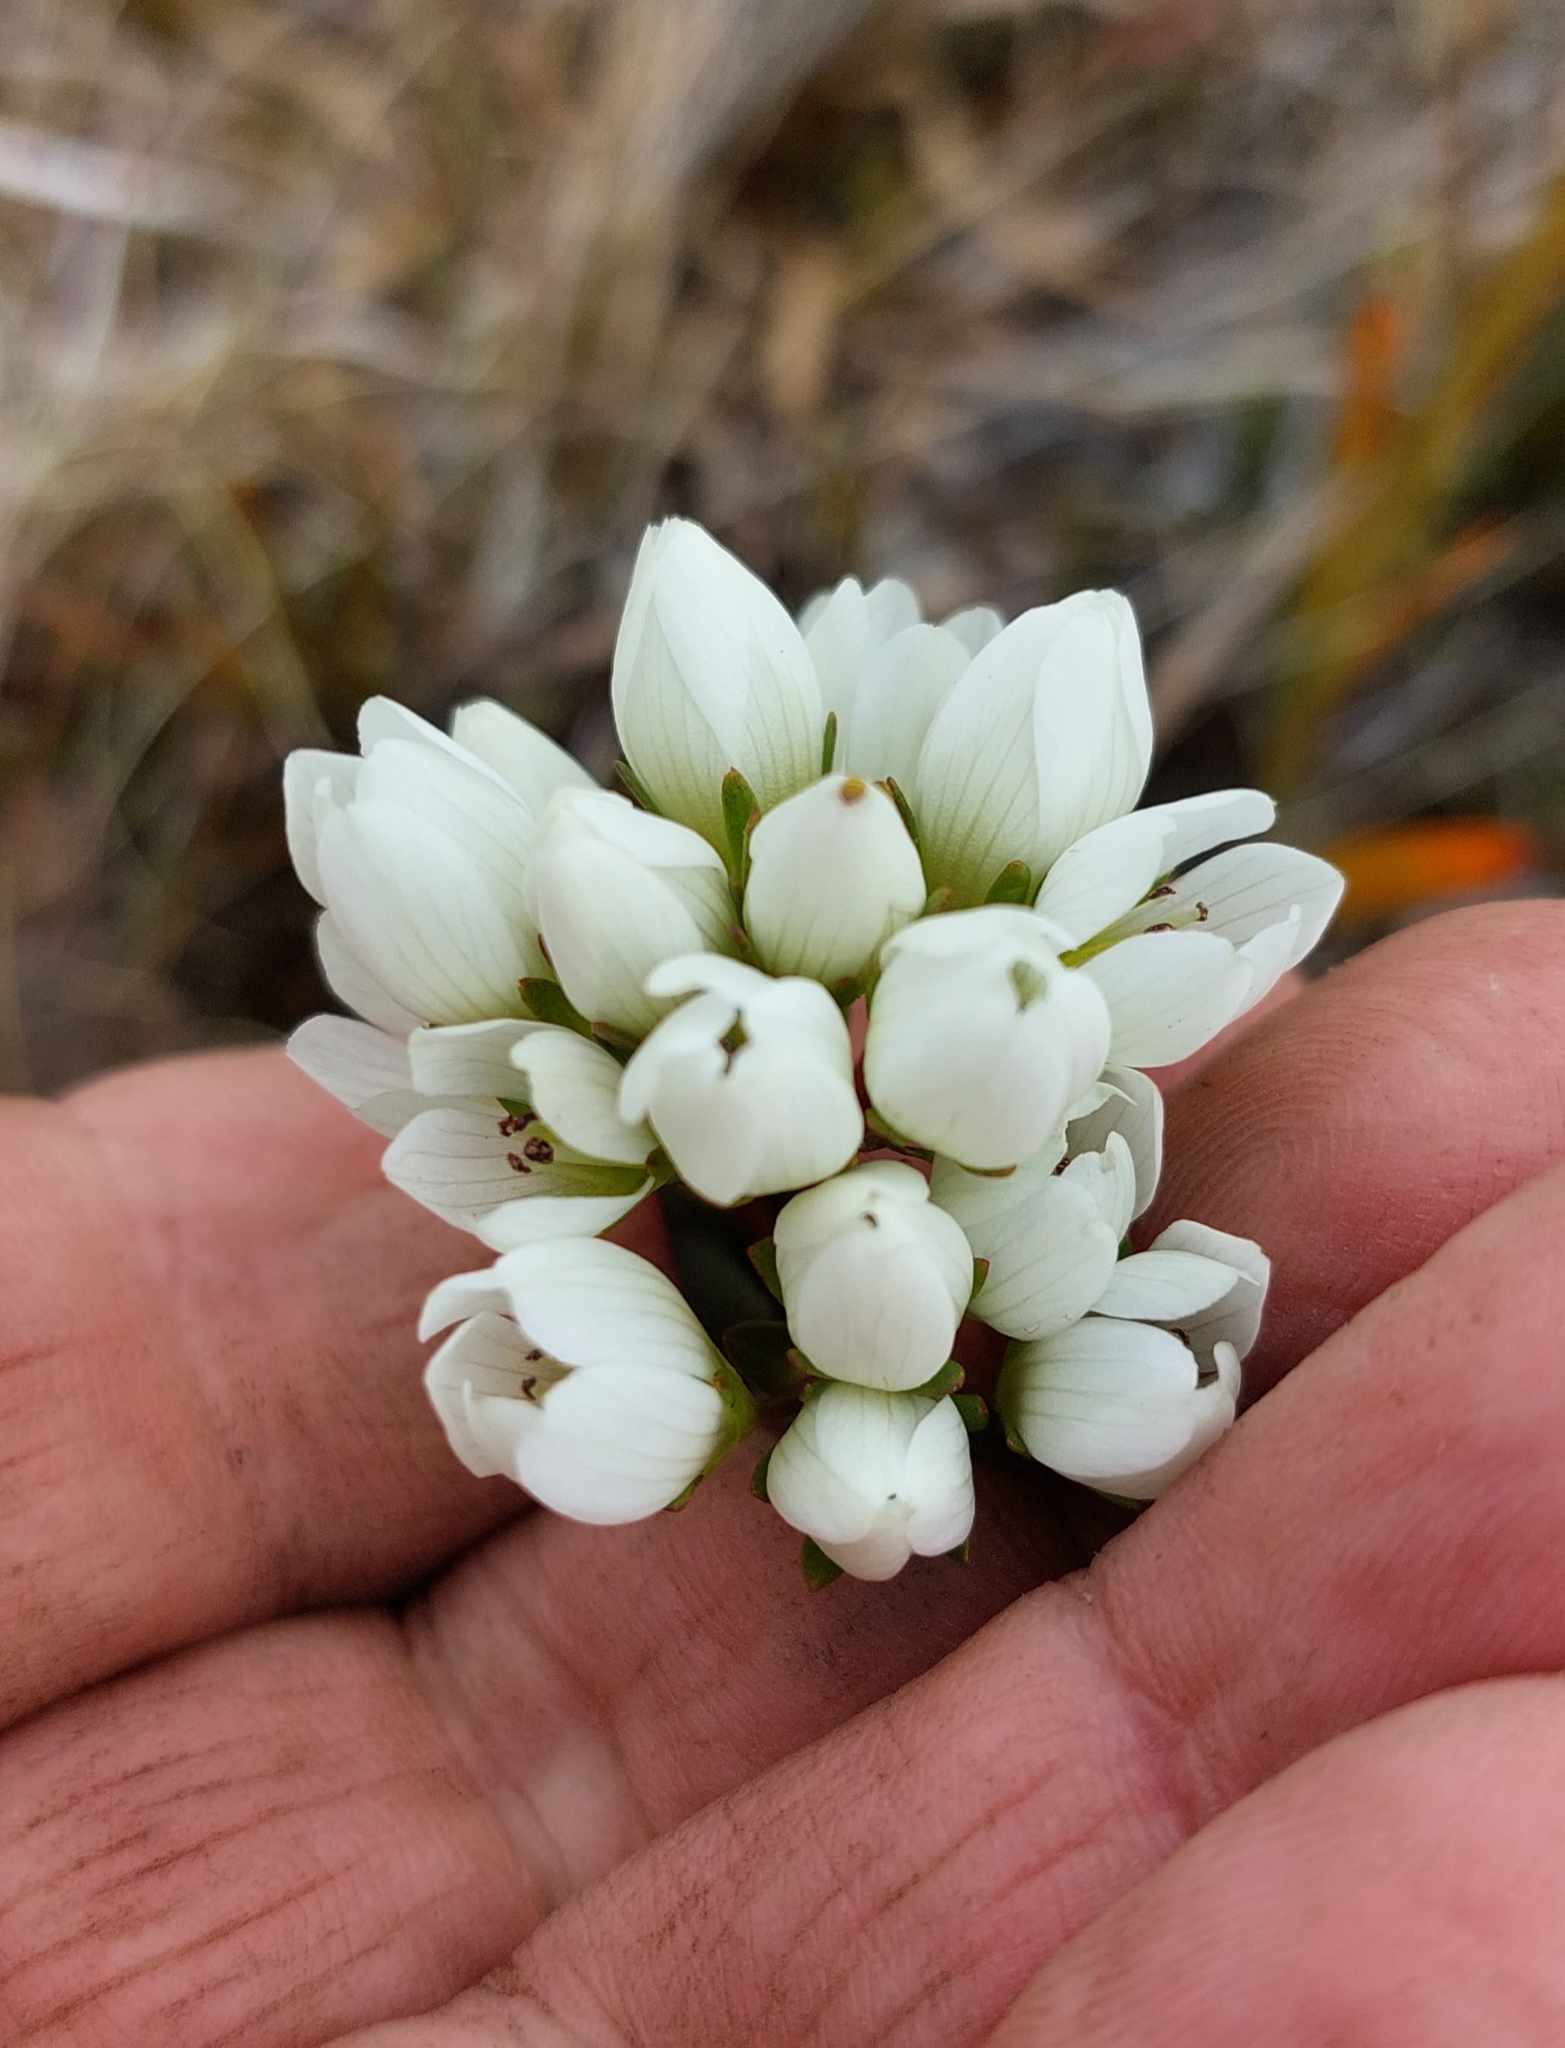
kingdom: Plantae
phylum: Tracheophyta
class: Magnoliopsida
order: Gentianales
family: Gentianaceae
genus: Gentianella
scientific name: Gentianella chathamica
